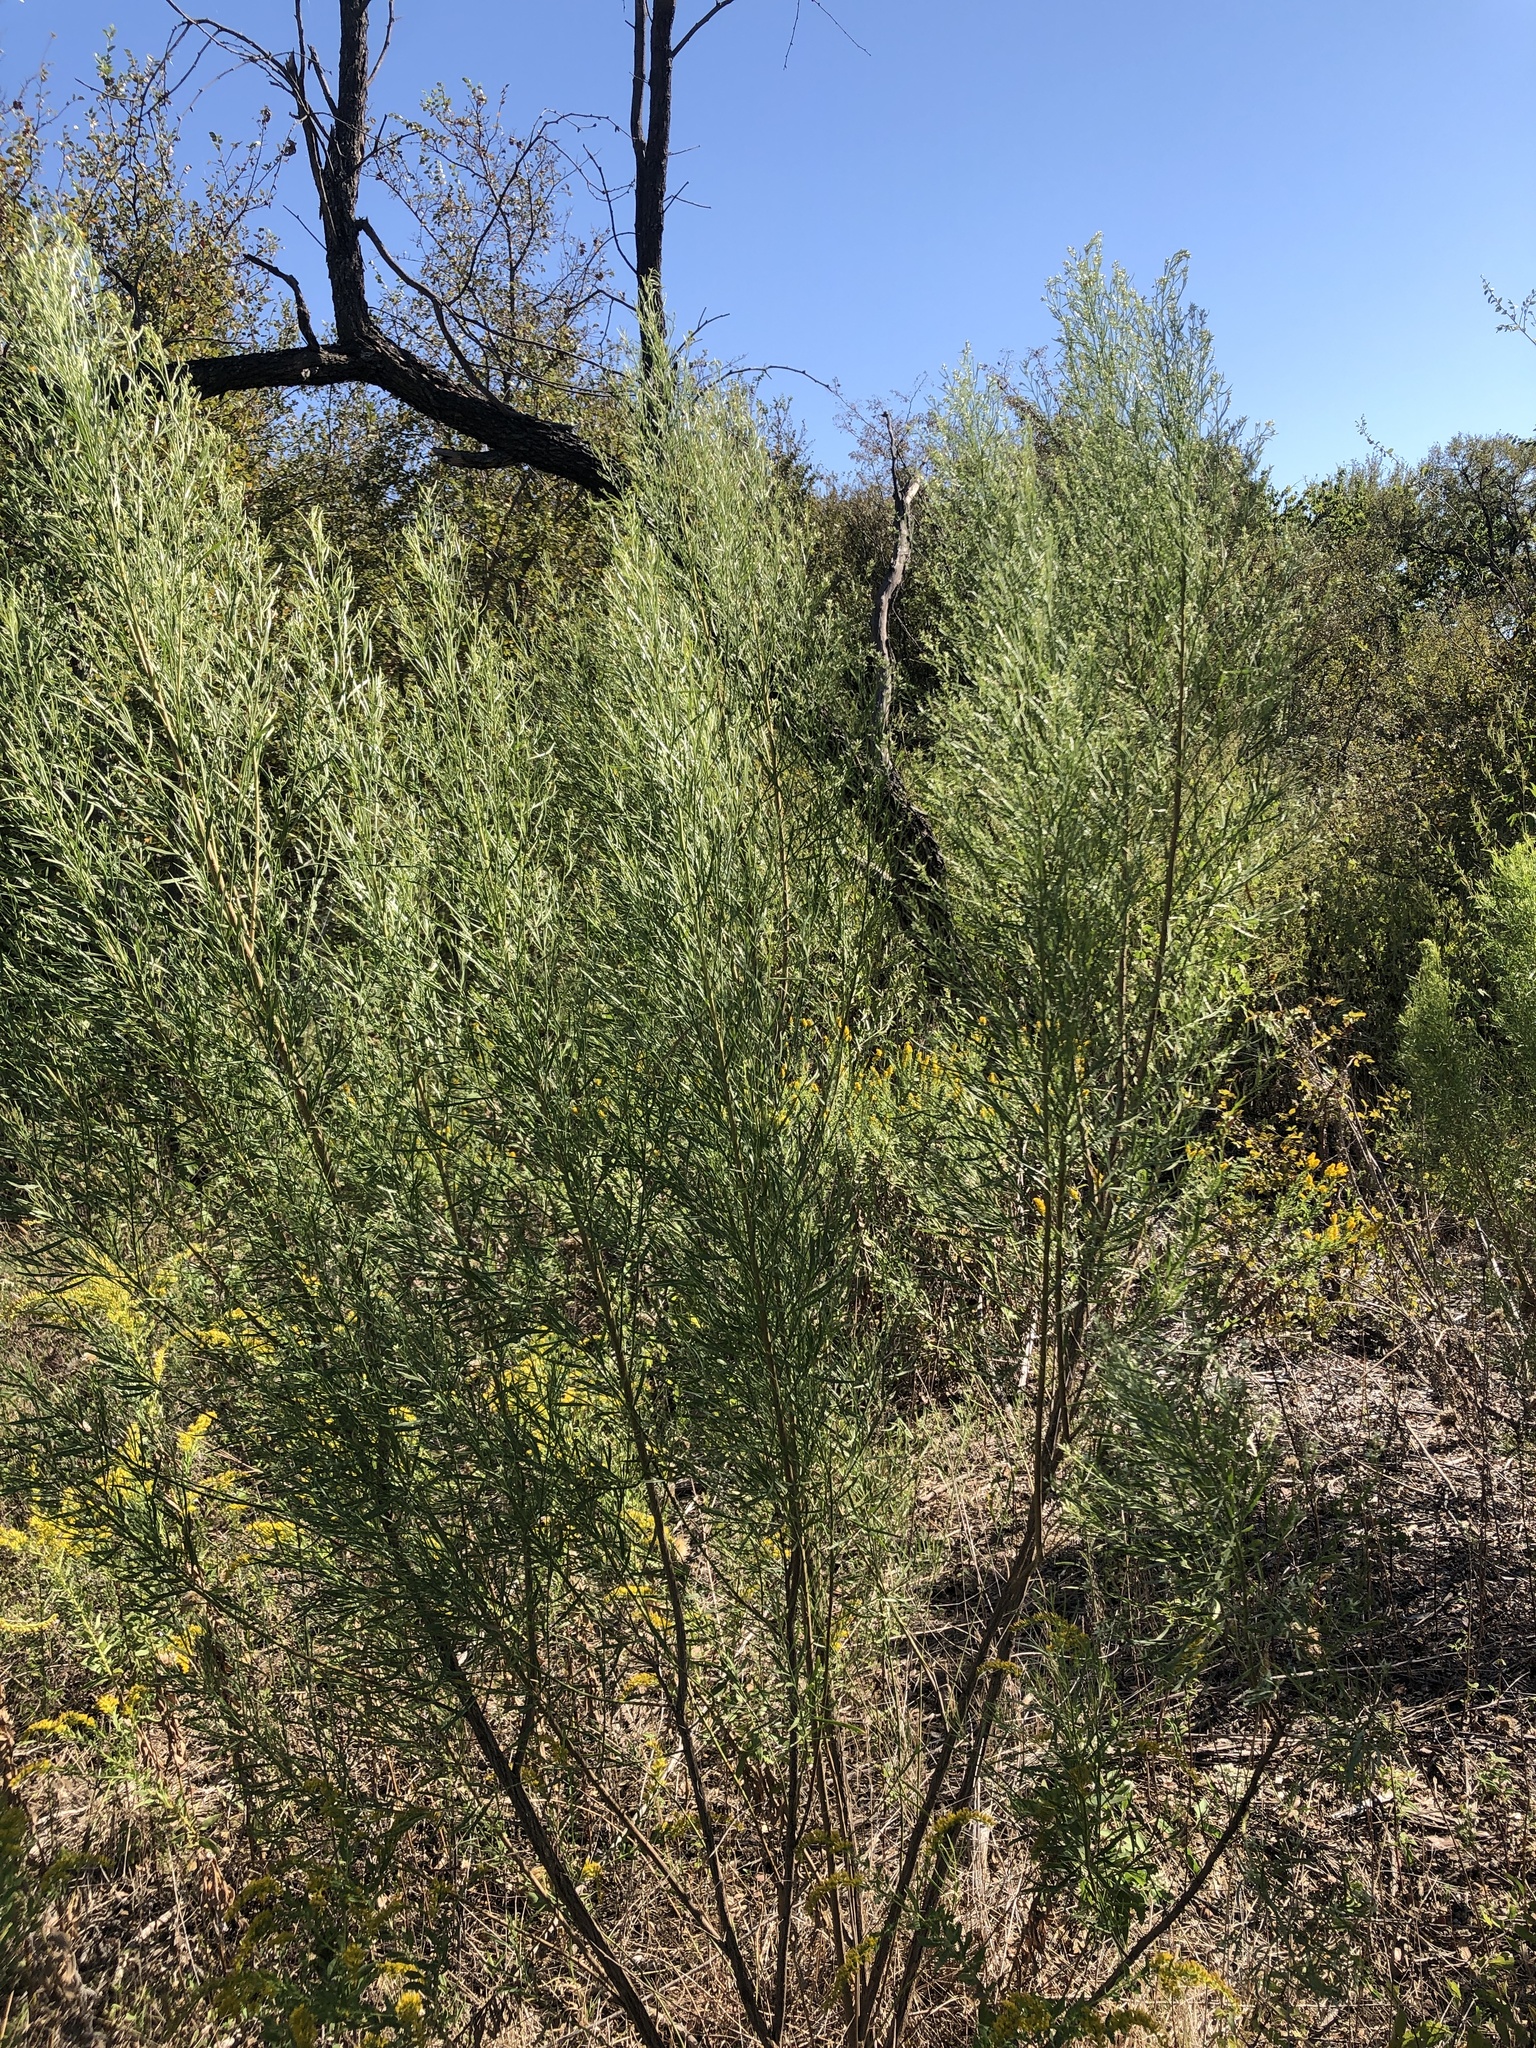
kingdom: Plantae
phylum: Tracheophyta
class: Magnoliopsida
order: Asterales
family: Asteraceae
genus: Baccharis
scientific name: Baccharis neglecta
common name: Roosevelt-weed
